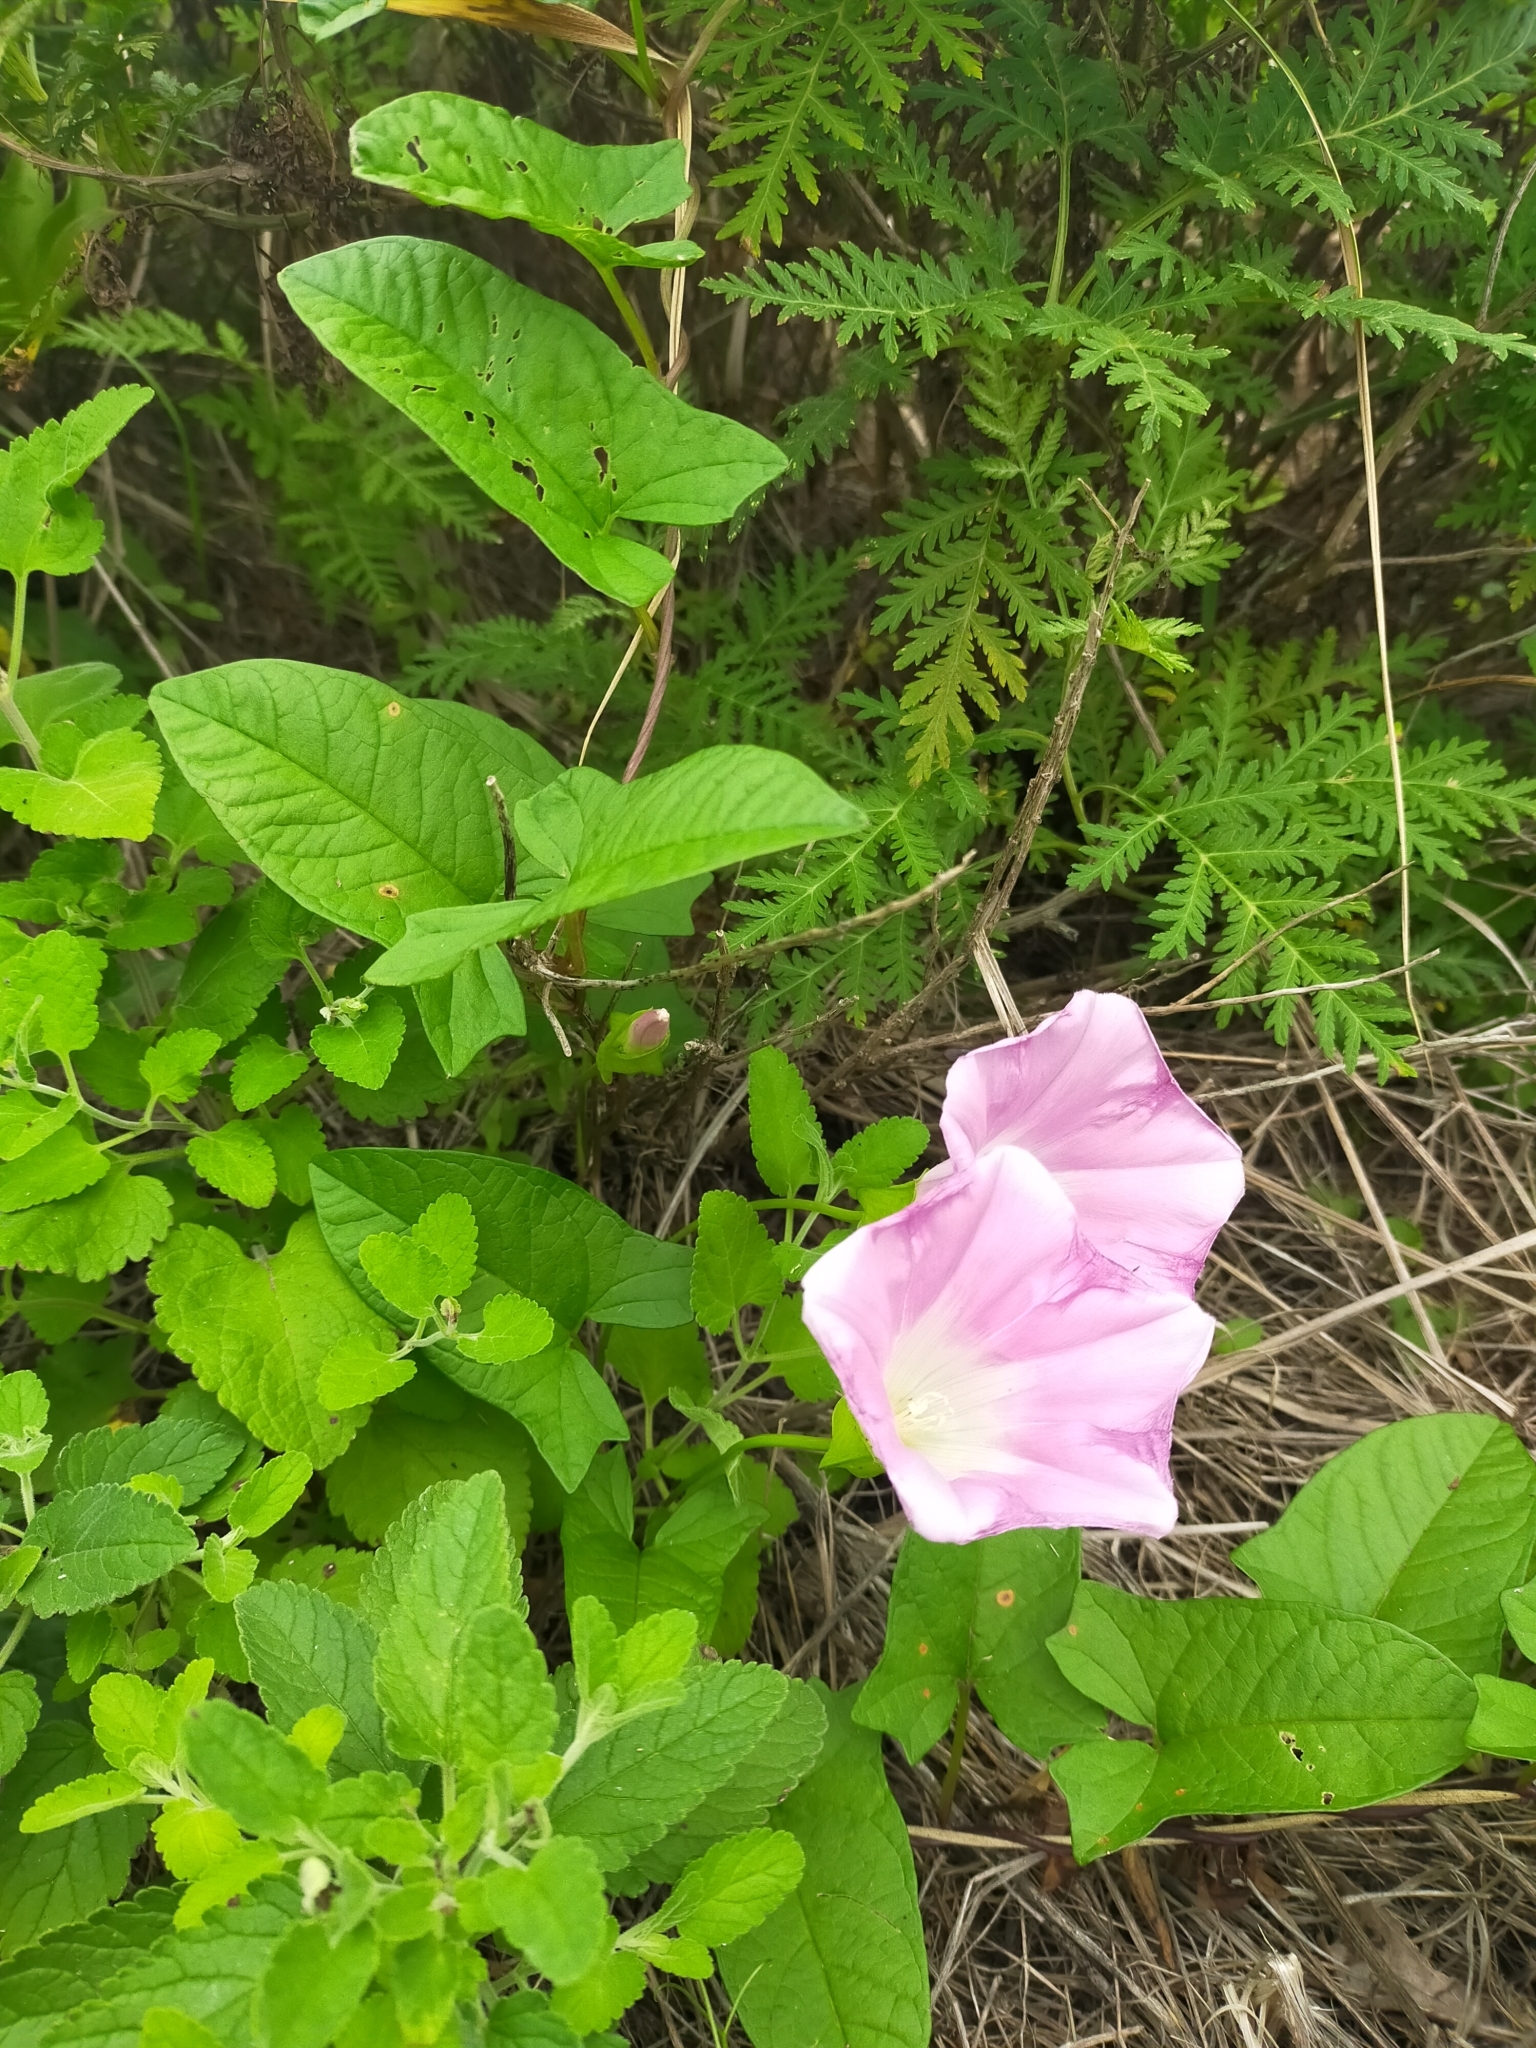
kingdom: Plantae
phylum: Tracheophyta
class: Magnoliopsida
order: Solanales
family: Convolvulaceae
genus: Calystegia
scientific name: Calystegia sepium
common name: Hedge bindweed
